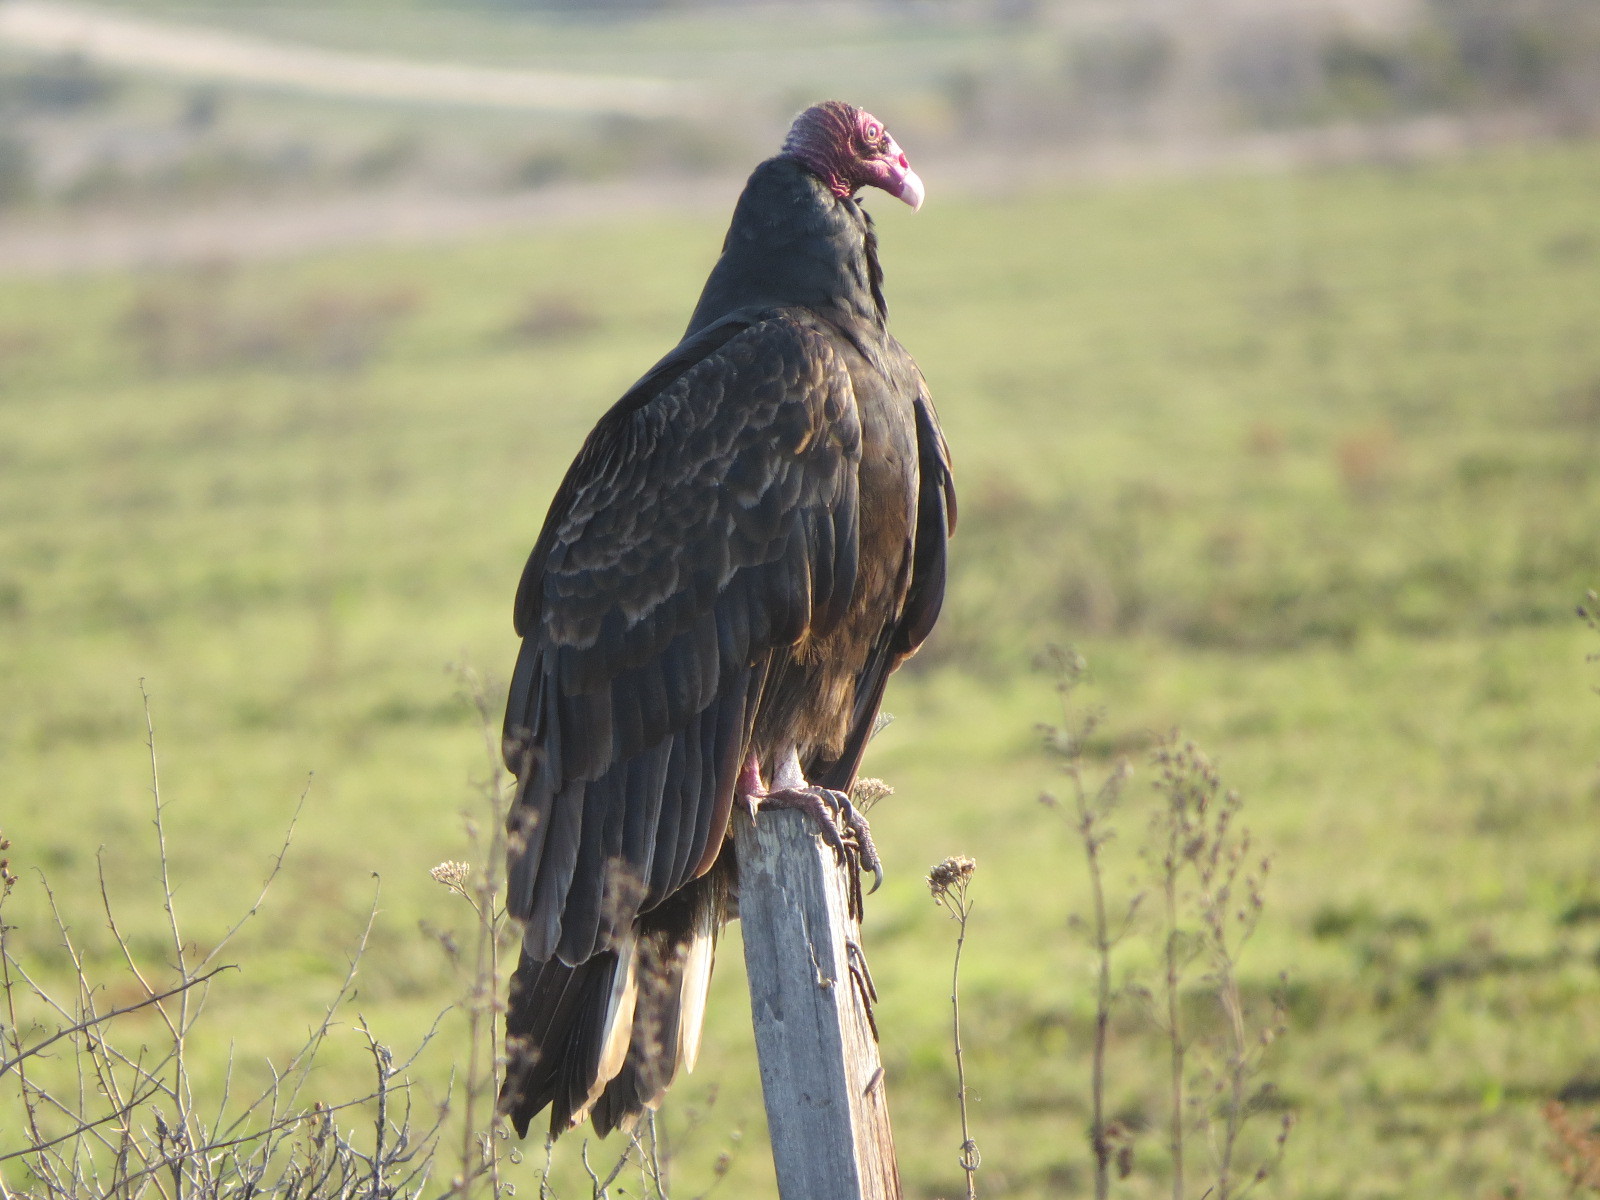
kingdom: Animalia
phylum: Chordata
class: Aves
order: Accipitriformes
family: Cathartidae
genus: Cathartes
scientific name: Cathartes aura
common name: Turkey vulture
